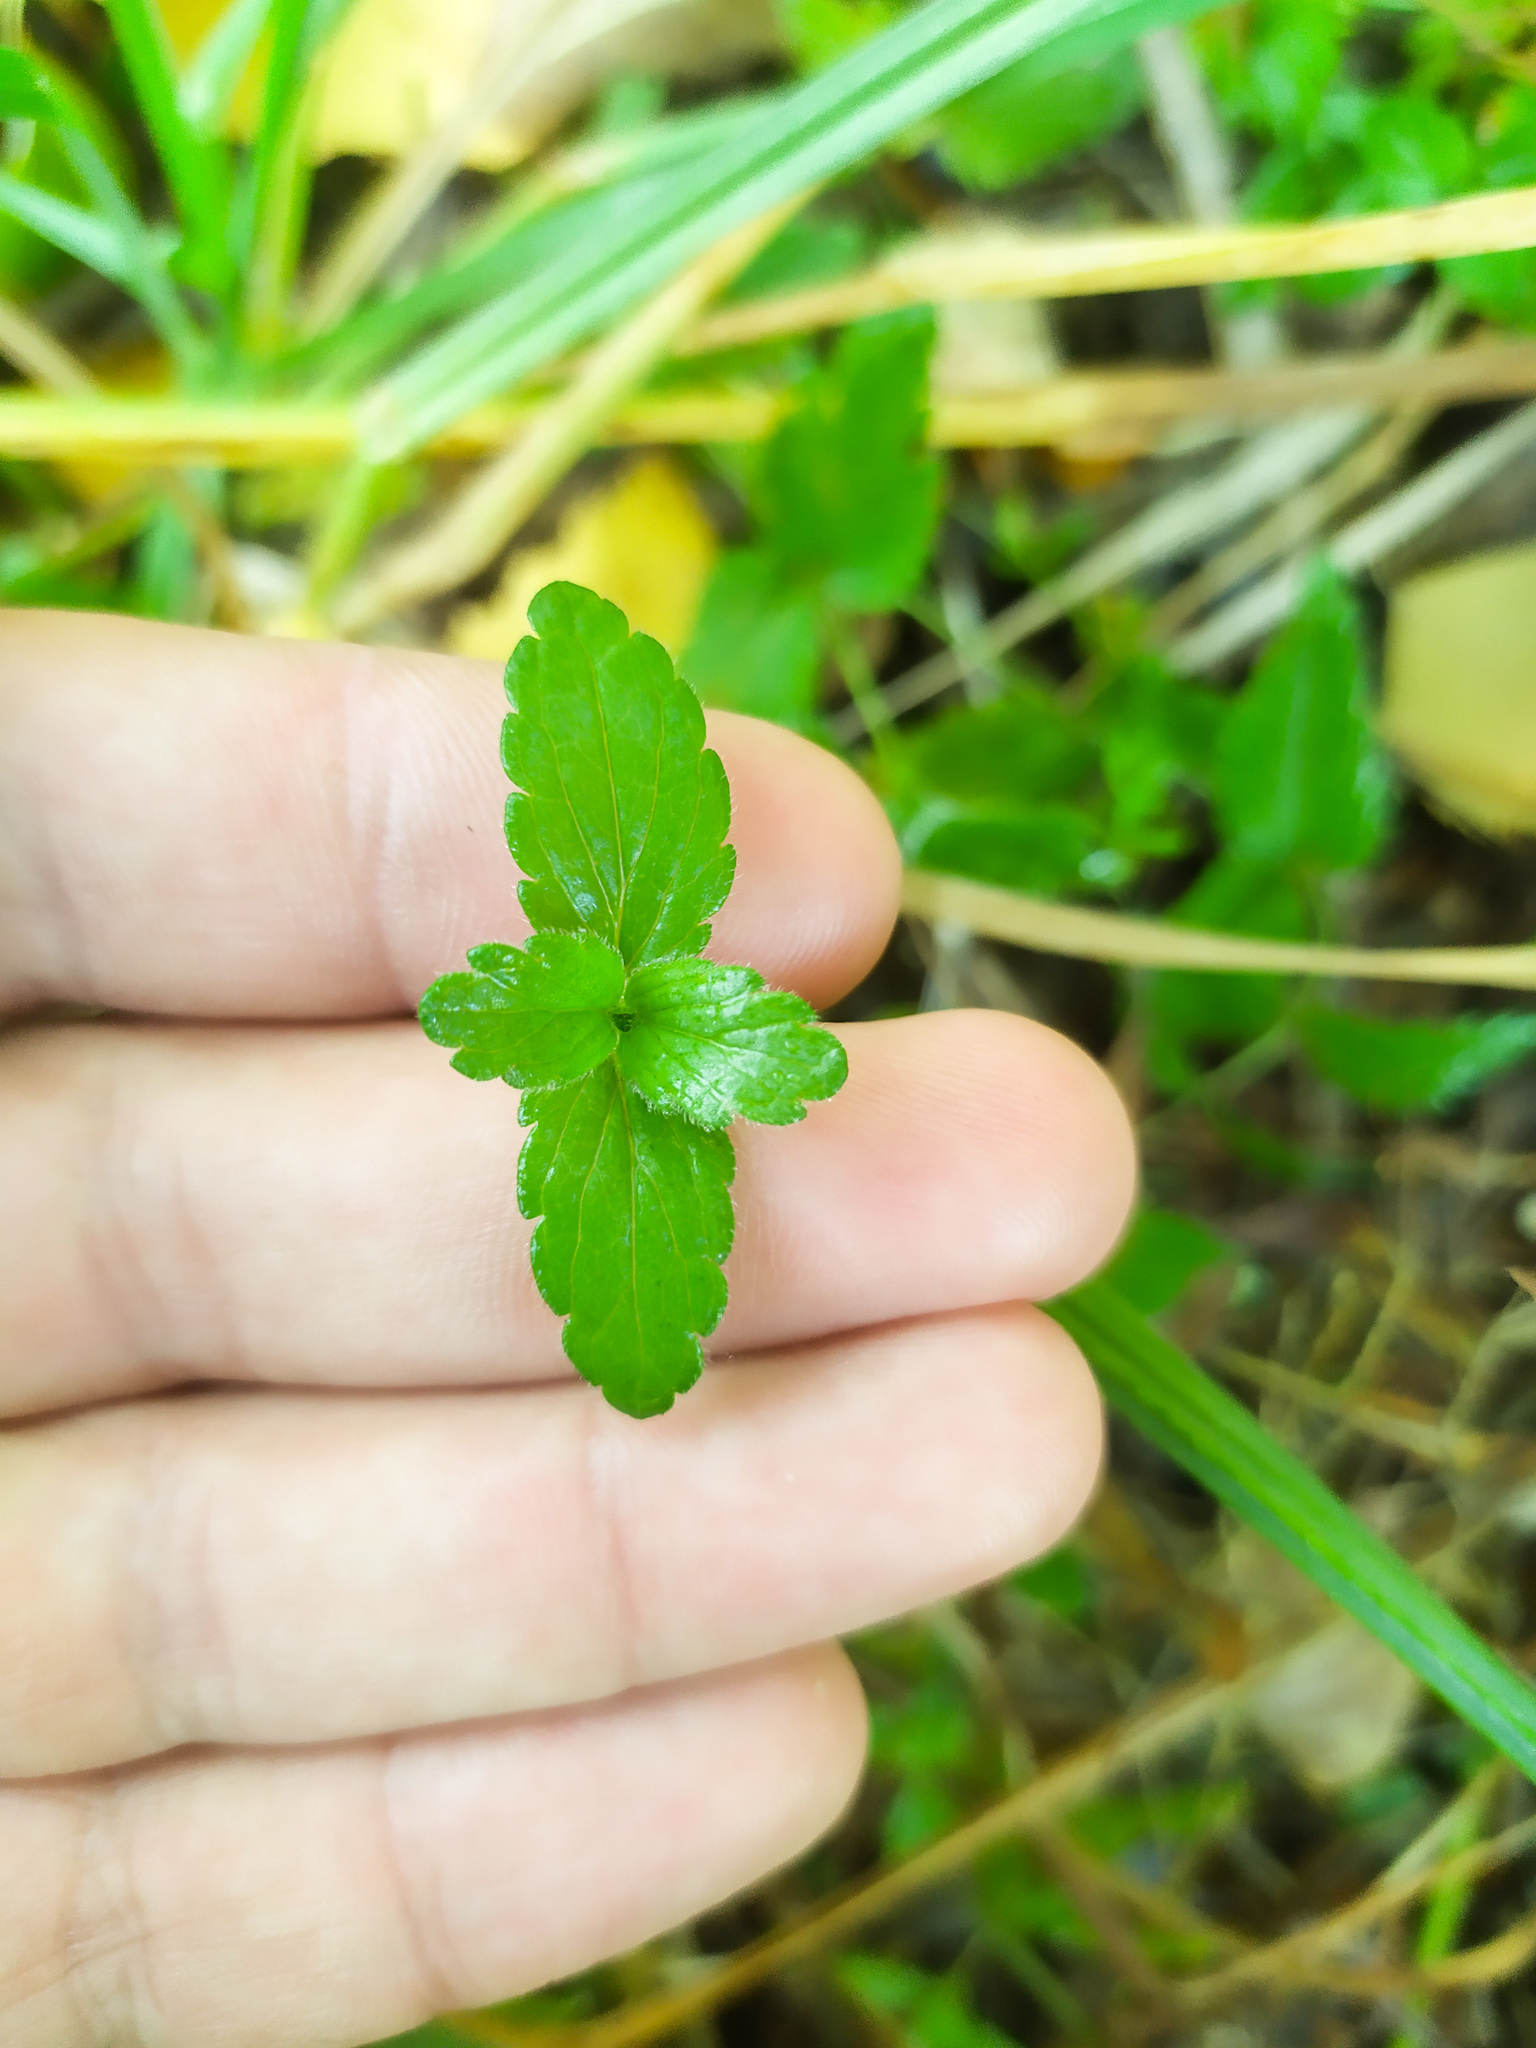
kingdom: Plantae
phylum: Tracheophyta
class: Magnoliopsida
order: Lamiales
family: Plantaginaceae
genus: Veronica
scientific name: Veronica chamaedrys
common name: Germander speedwell
